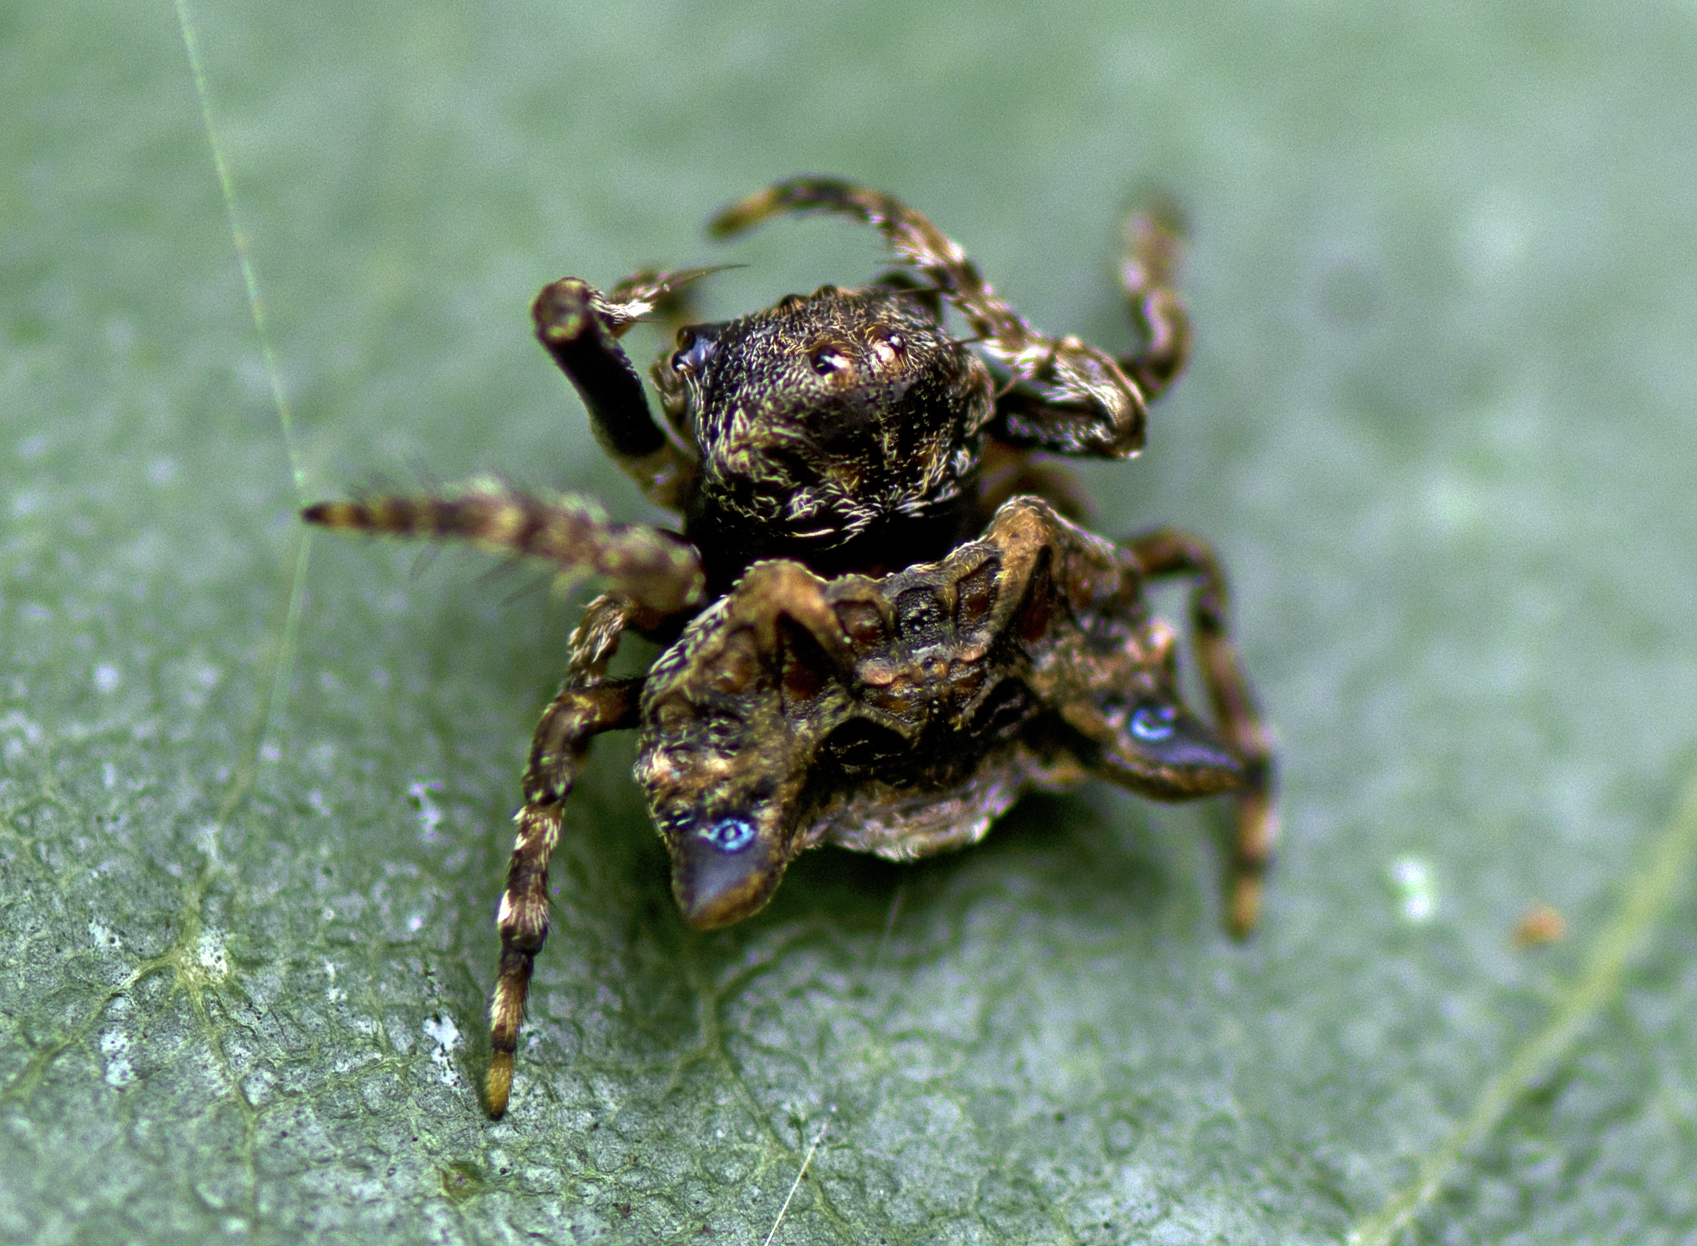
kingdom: Animalia
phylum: Arthropoda
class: Arachnida
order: Araneae
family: Arkyidae
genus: Arkys
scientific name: Arkys curtulus
